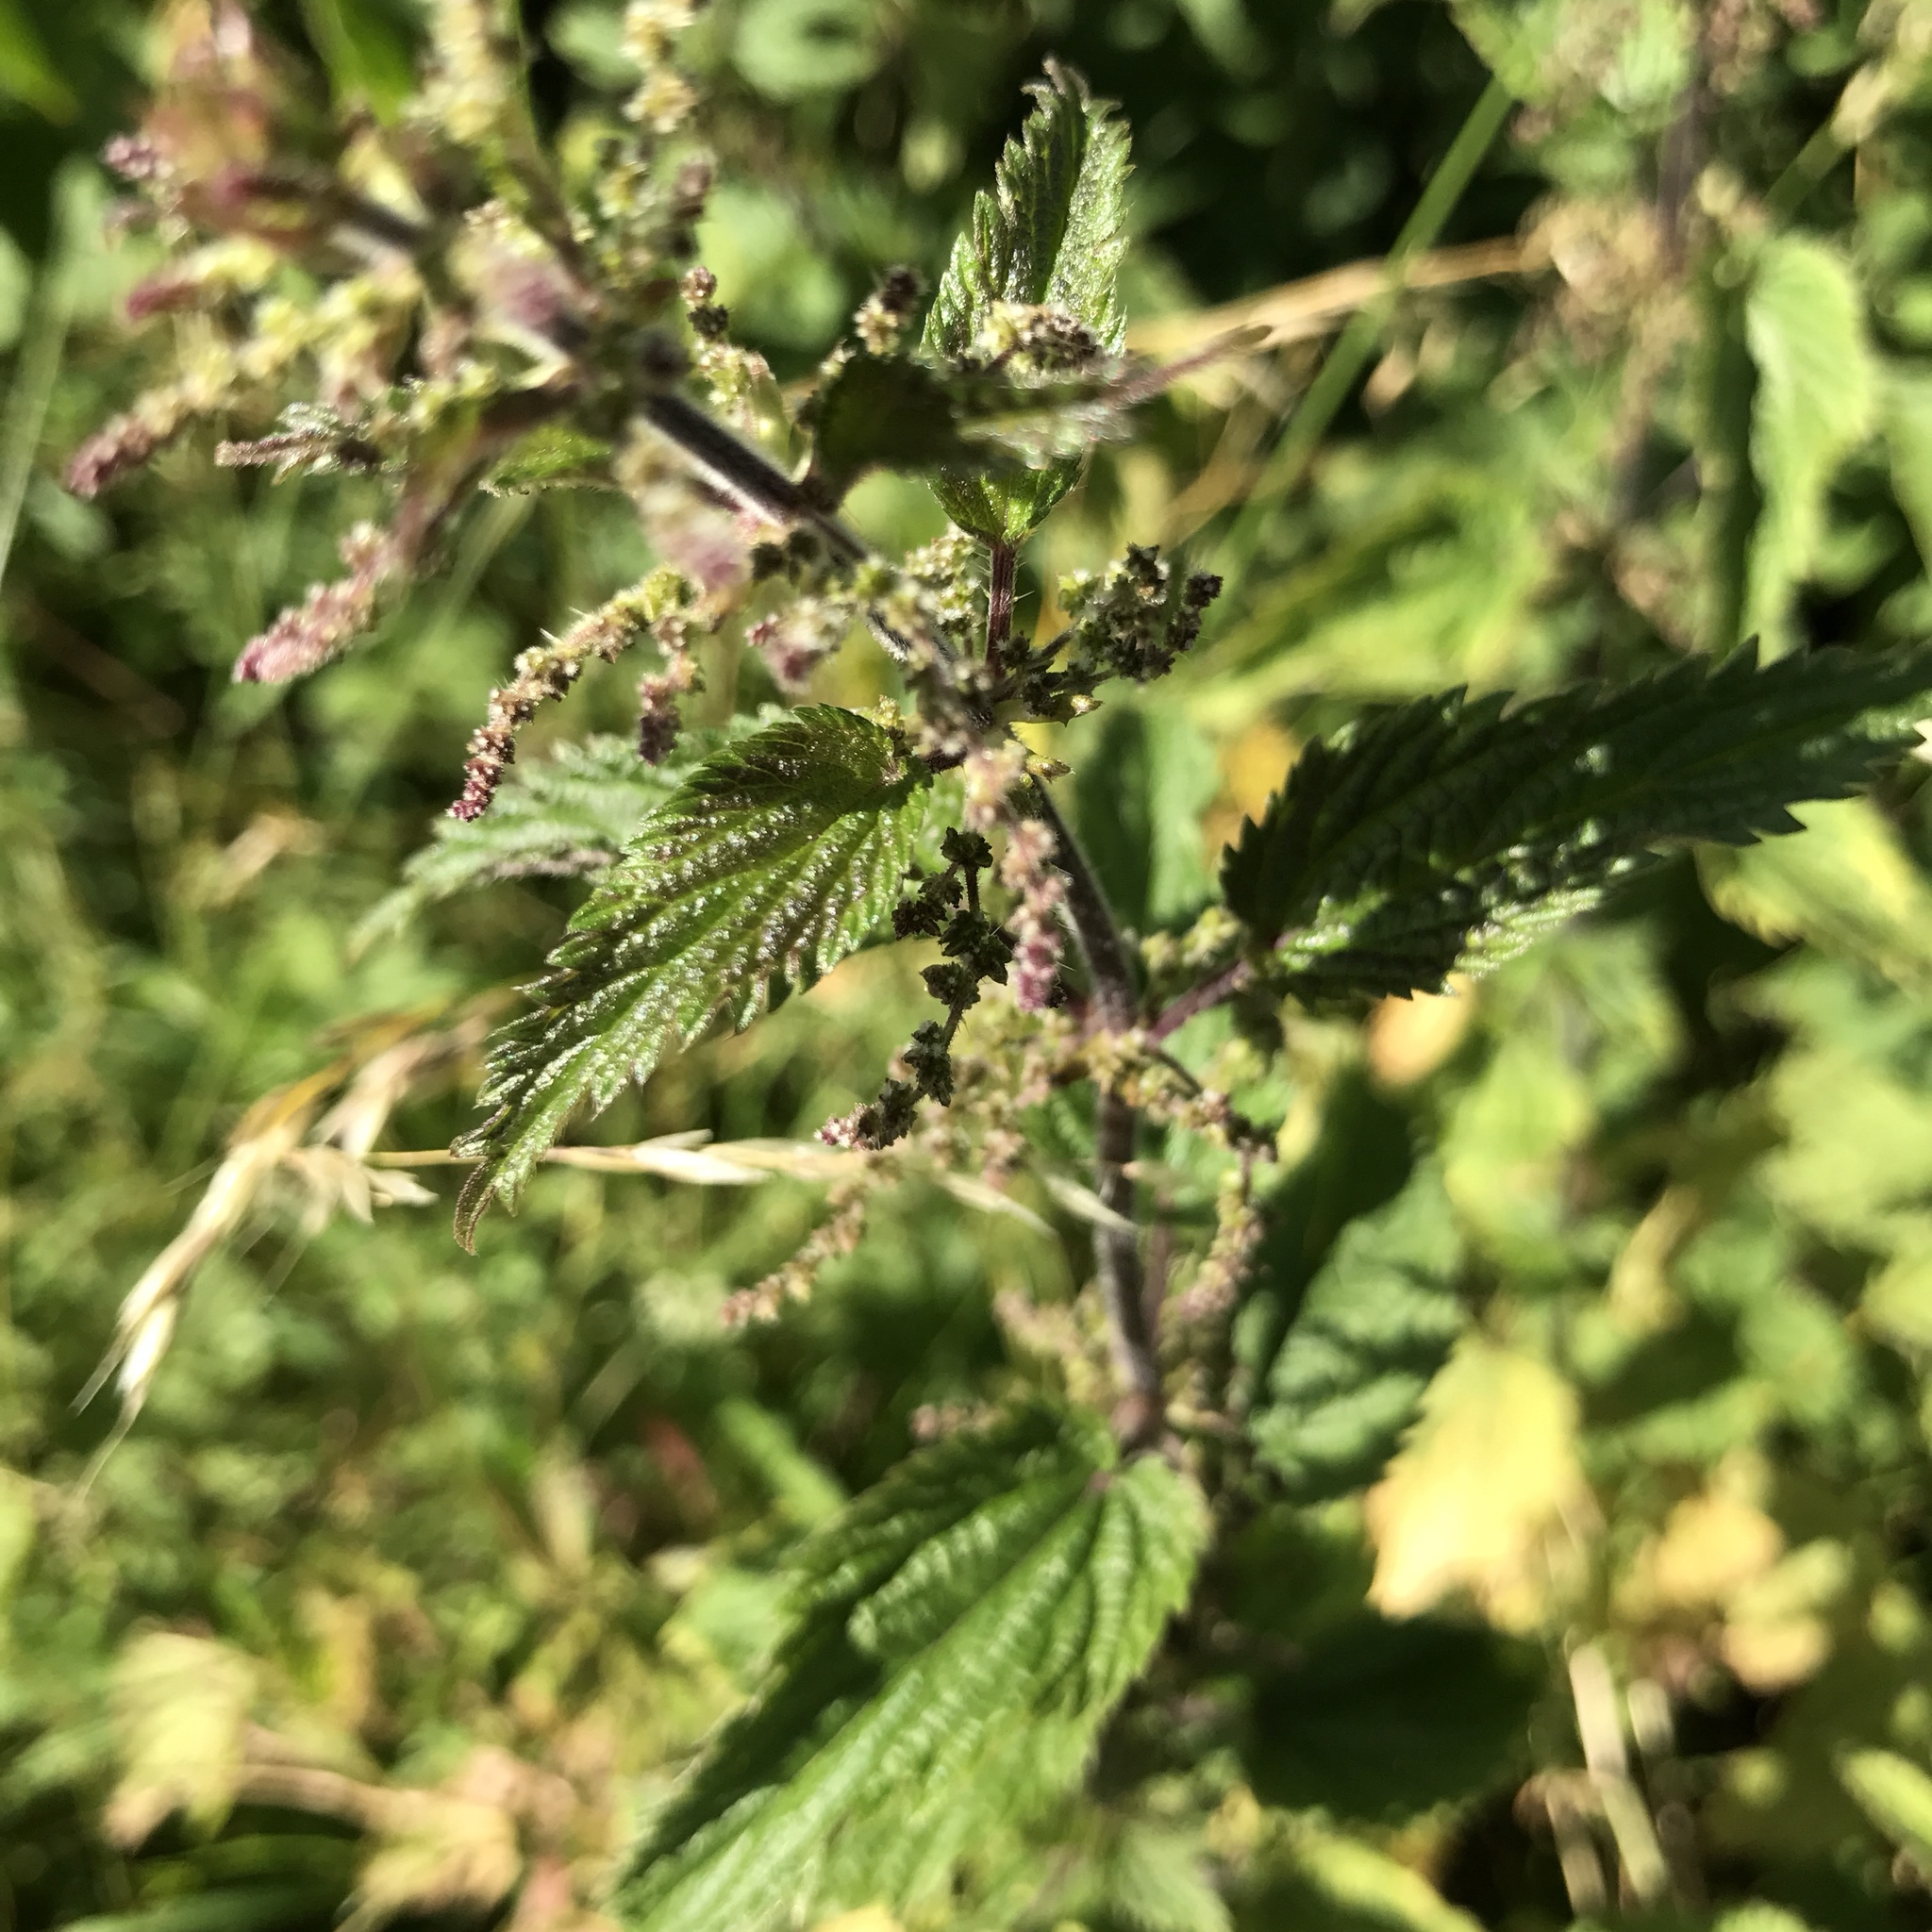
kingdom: Plantae
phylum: Tracheophyta
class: Magnoliopsida
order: Rosales
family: Urticaceae
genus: Urtica
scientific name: Urtica dioica
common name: Common nettle
